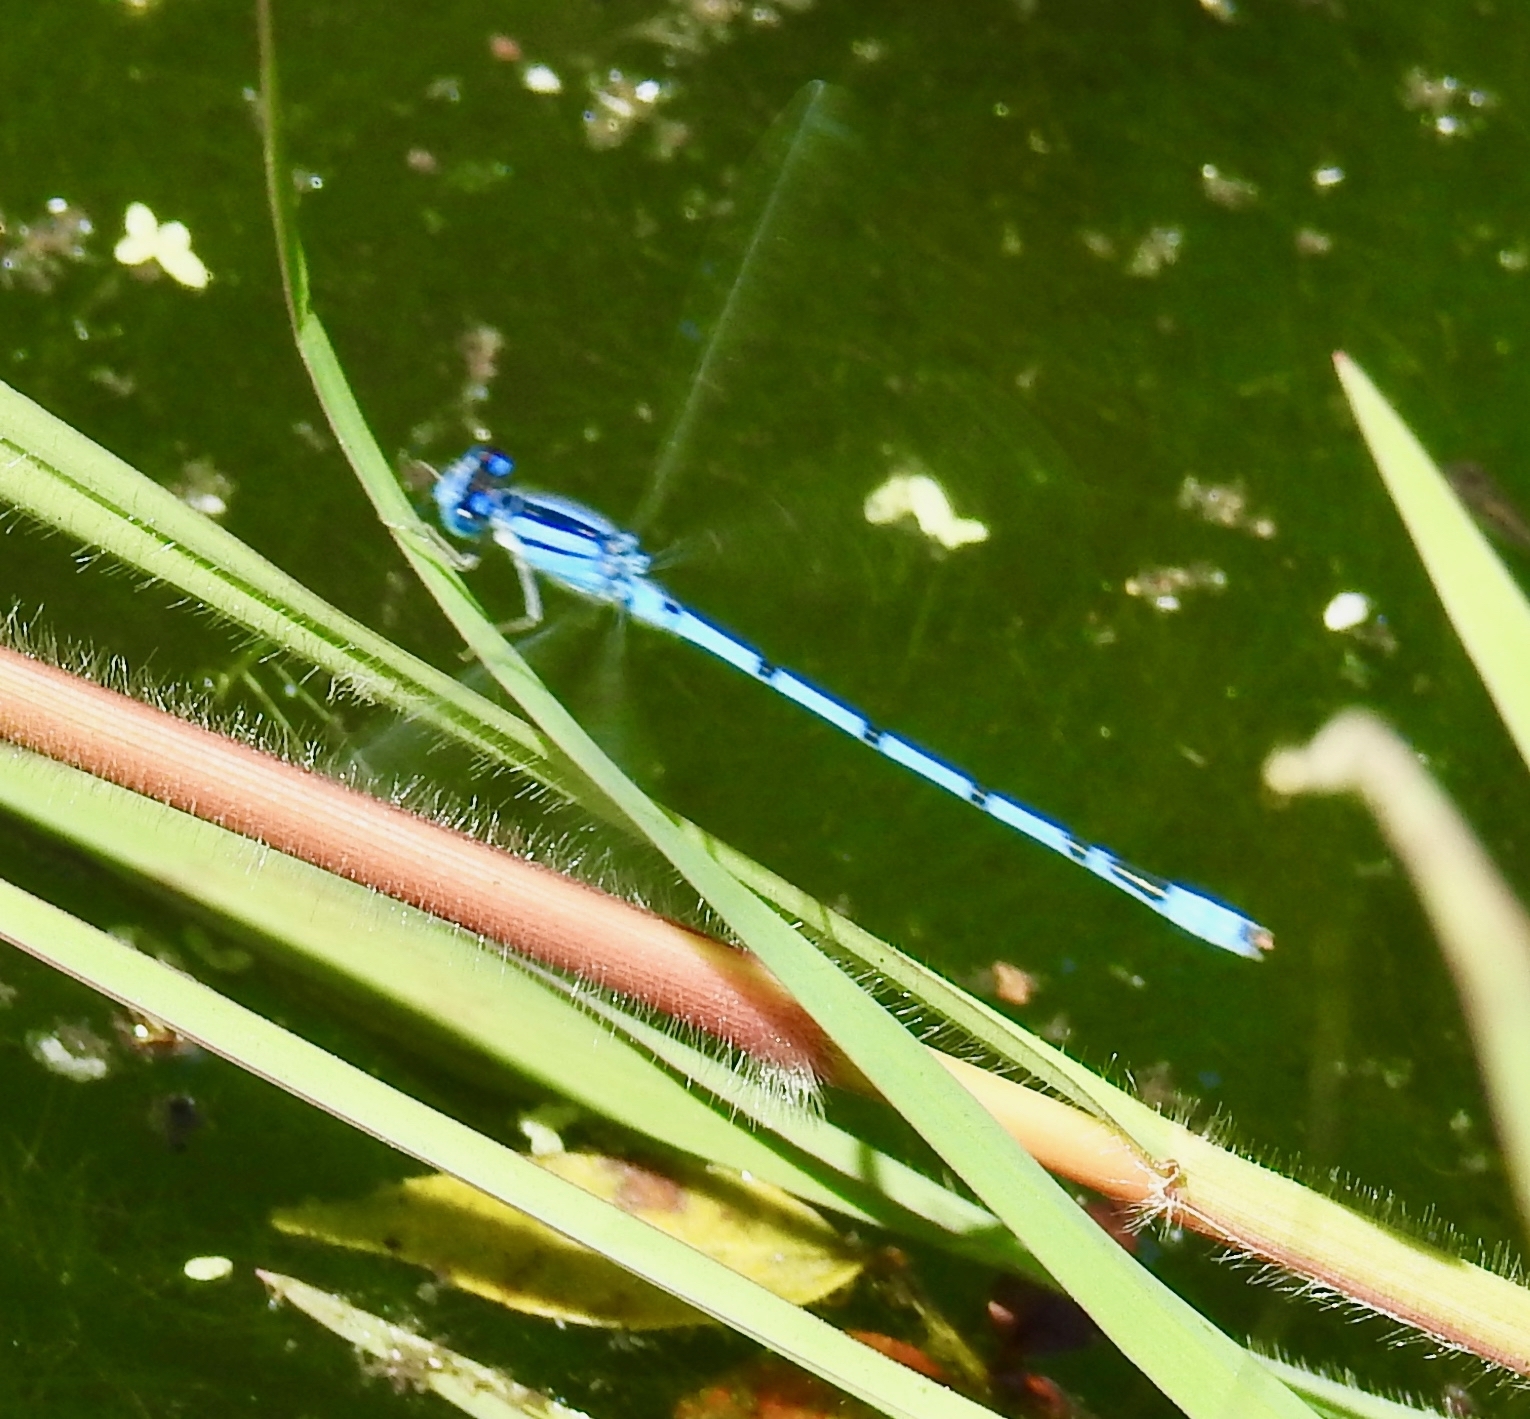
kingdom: Animalia
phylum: Arthropoda
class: Insecta
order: Odonata
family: Coenagrionidae
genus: Enallagma
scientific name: Enallagma civile
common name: Damselfly
